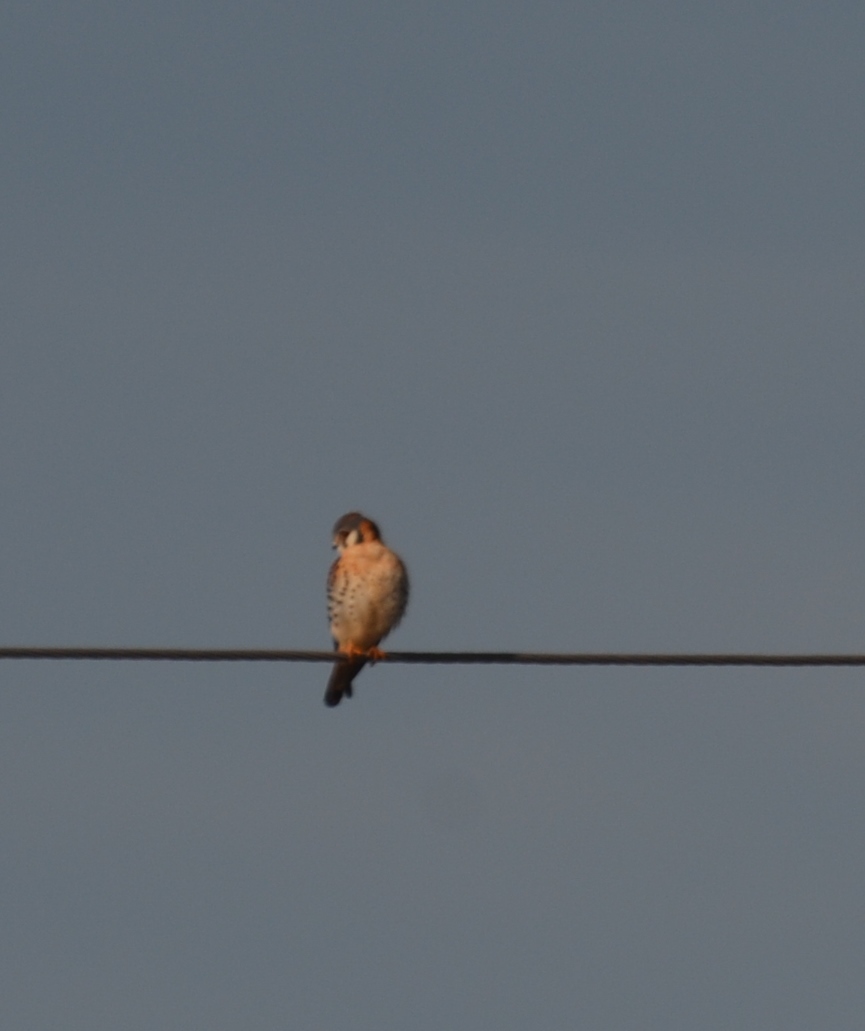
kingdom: Animalia
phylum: Chordata
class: Aves
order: Falconiformes
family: Falconidae
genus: Falco
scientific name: Falco sparverius
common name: American kestrel
